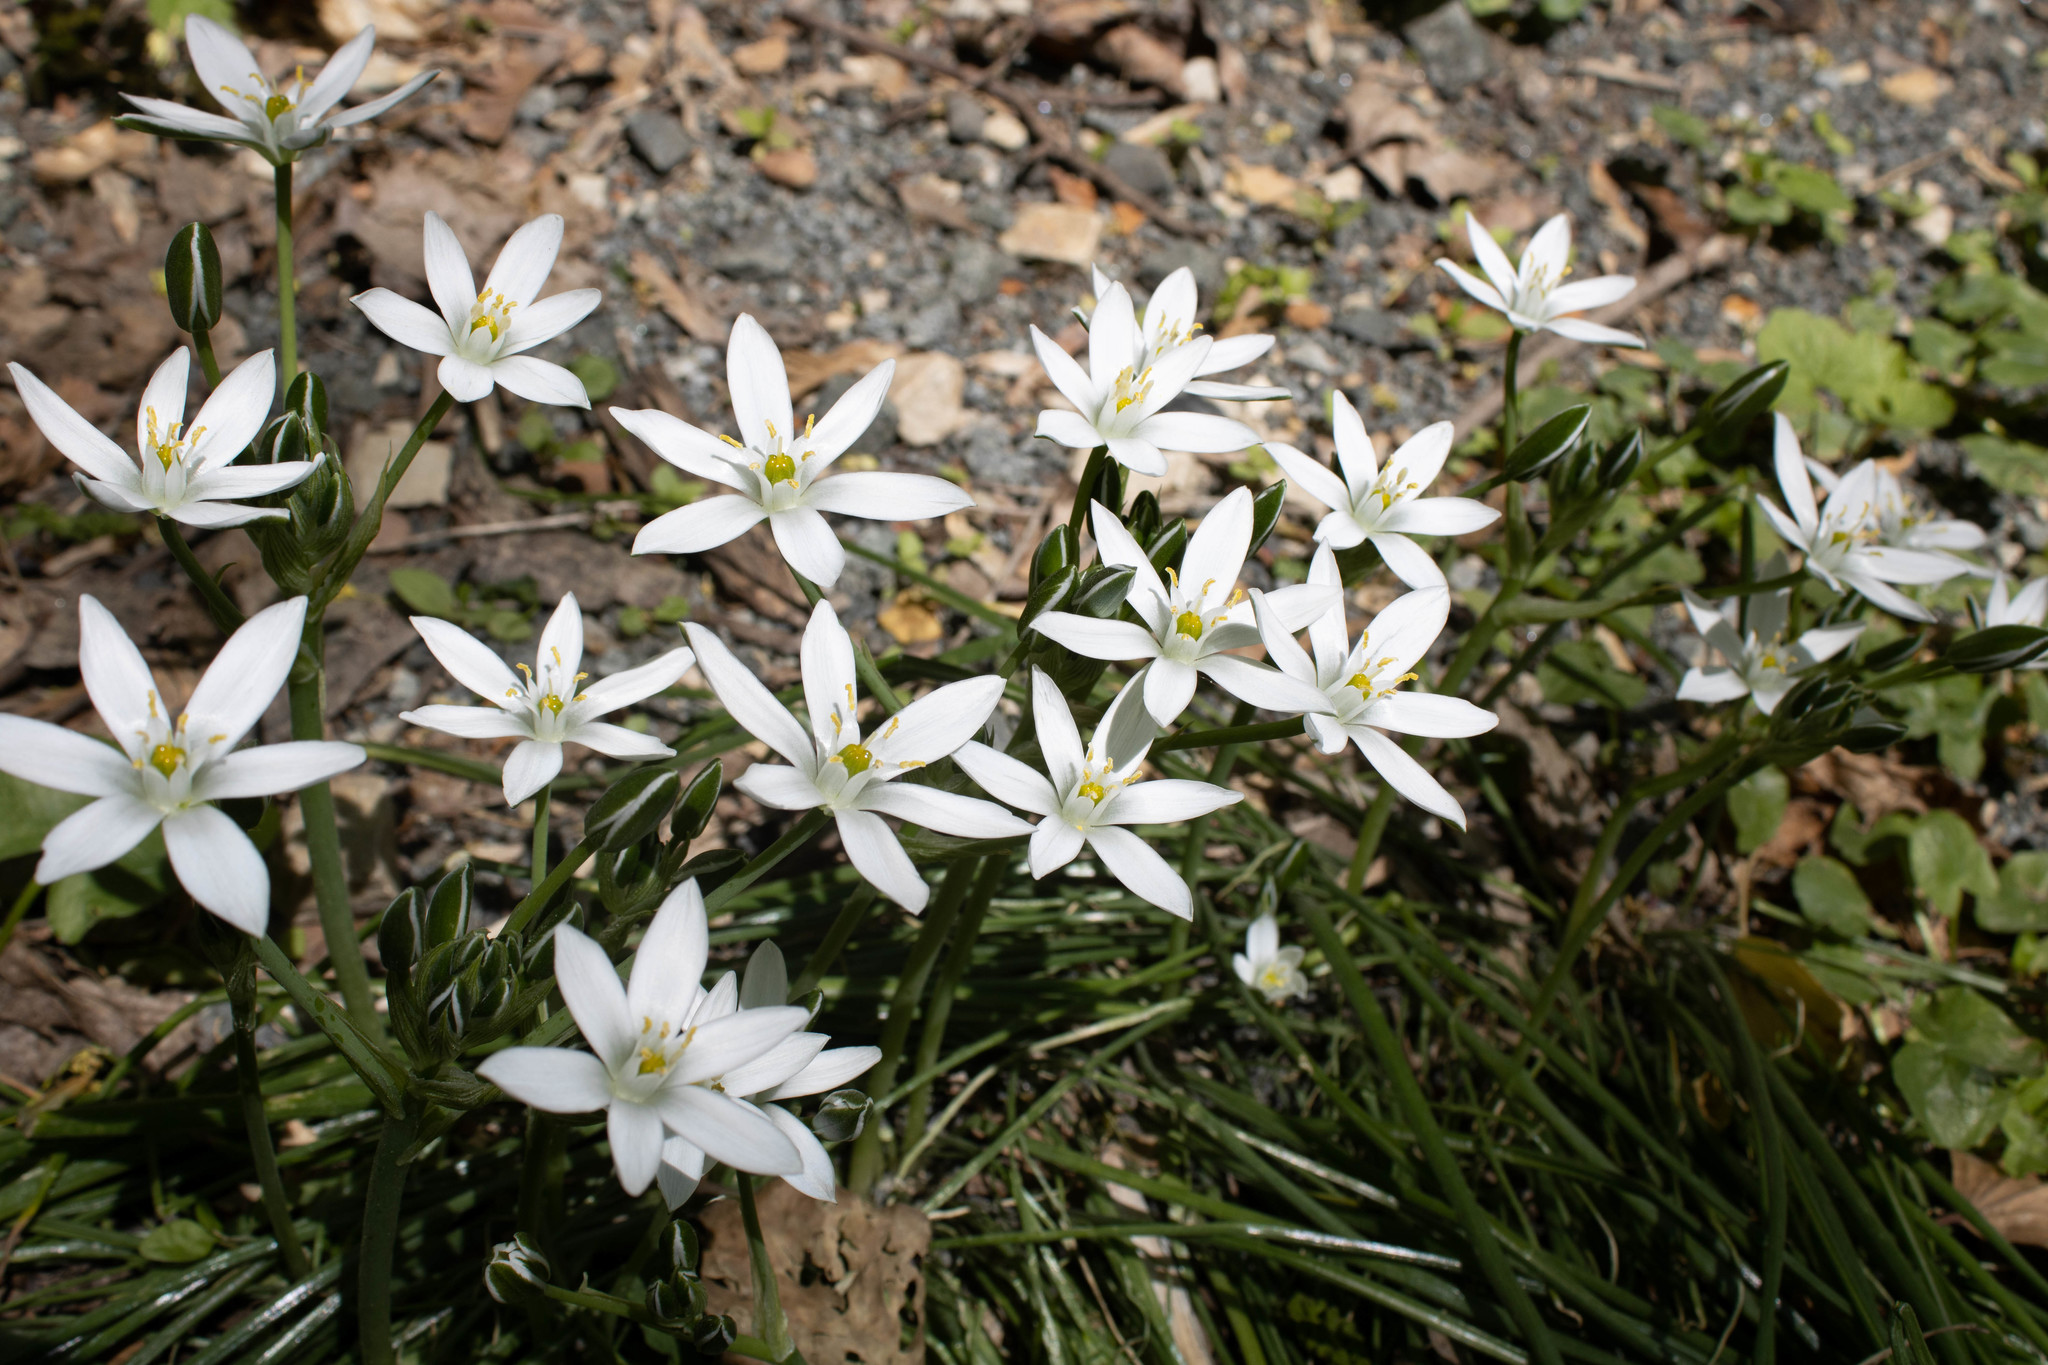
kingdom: Plantae
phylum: Tracheophyta
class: Liliopsida
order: Asparagales
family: Asparagaceae
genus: Ornithogalum
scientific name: Ornithogalum umbellatum
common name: Garden star-of-bethlehem
